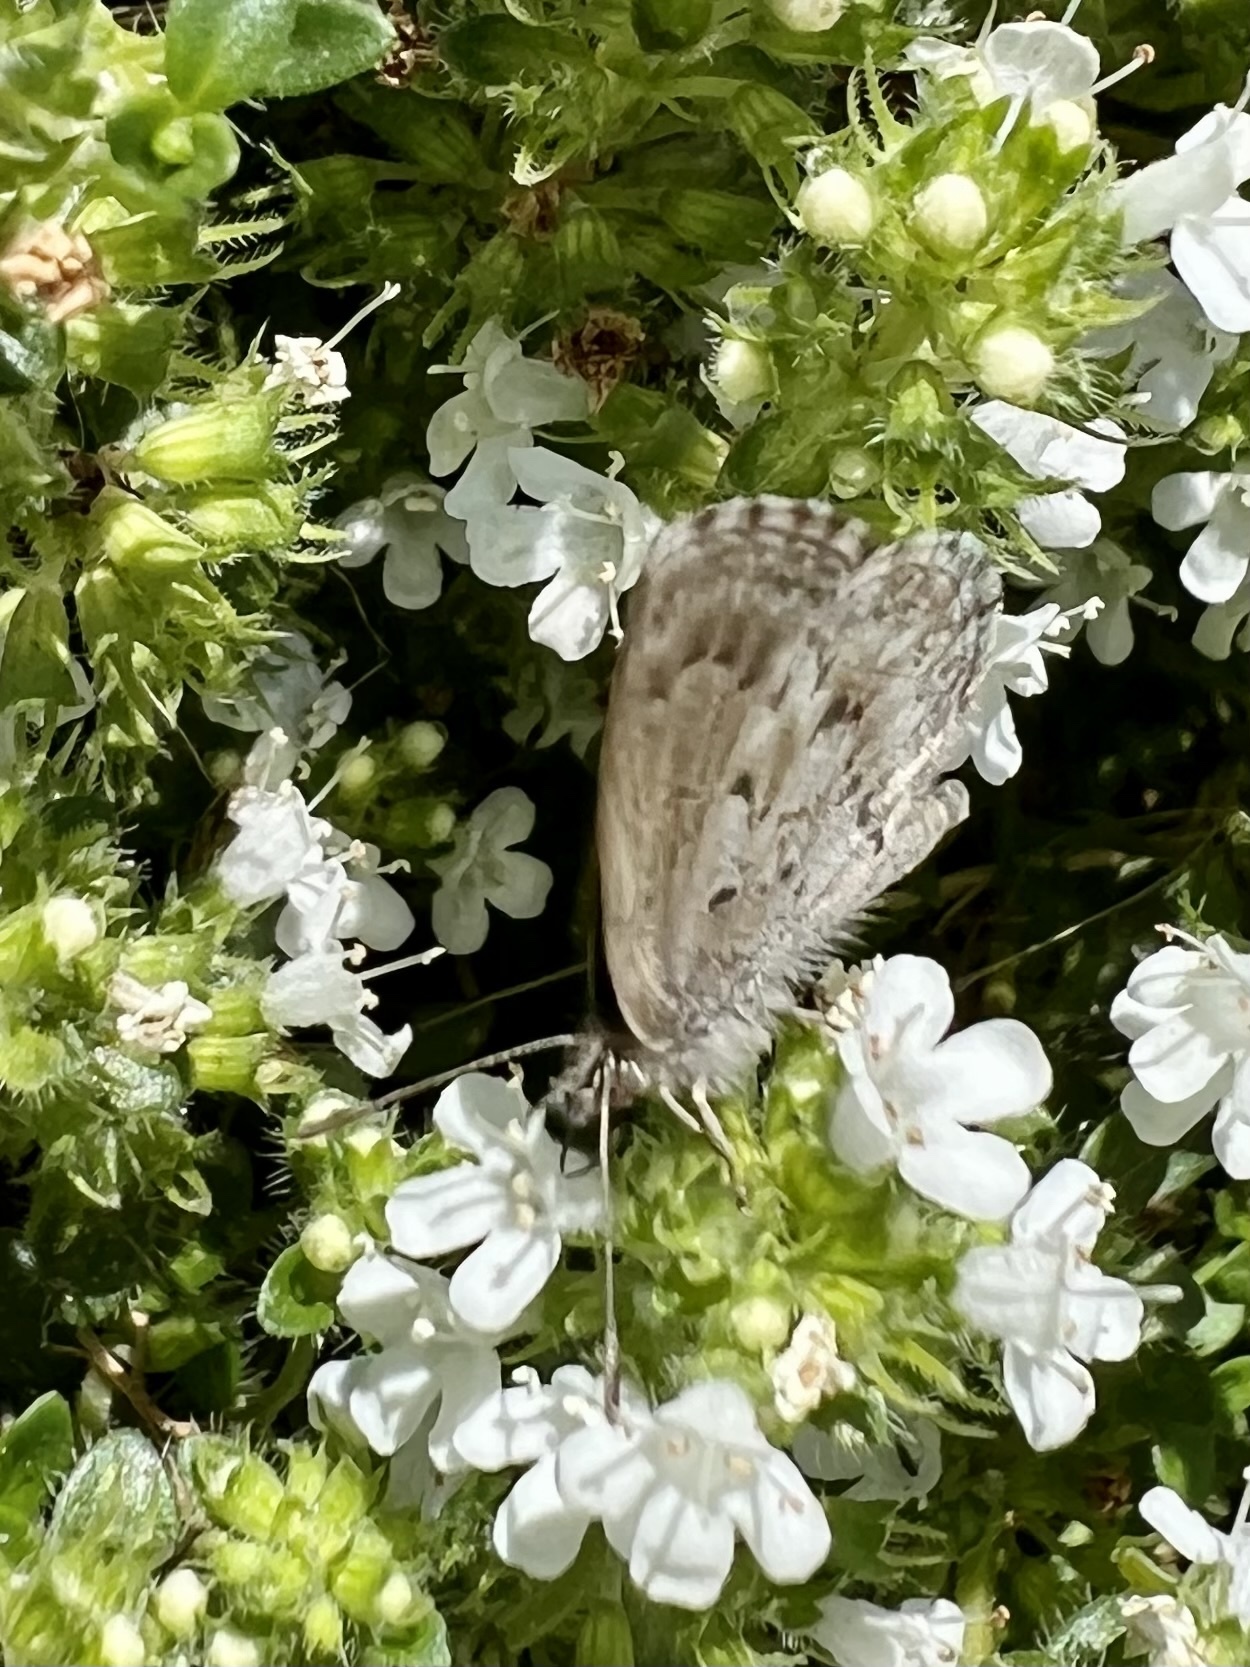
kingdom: Animalia
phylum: Arthropoda
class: Insecta
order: Lepidoptera
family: Lycaenidae
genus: Zizina
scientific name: Zizina oxleyi
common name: Southern blue
